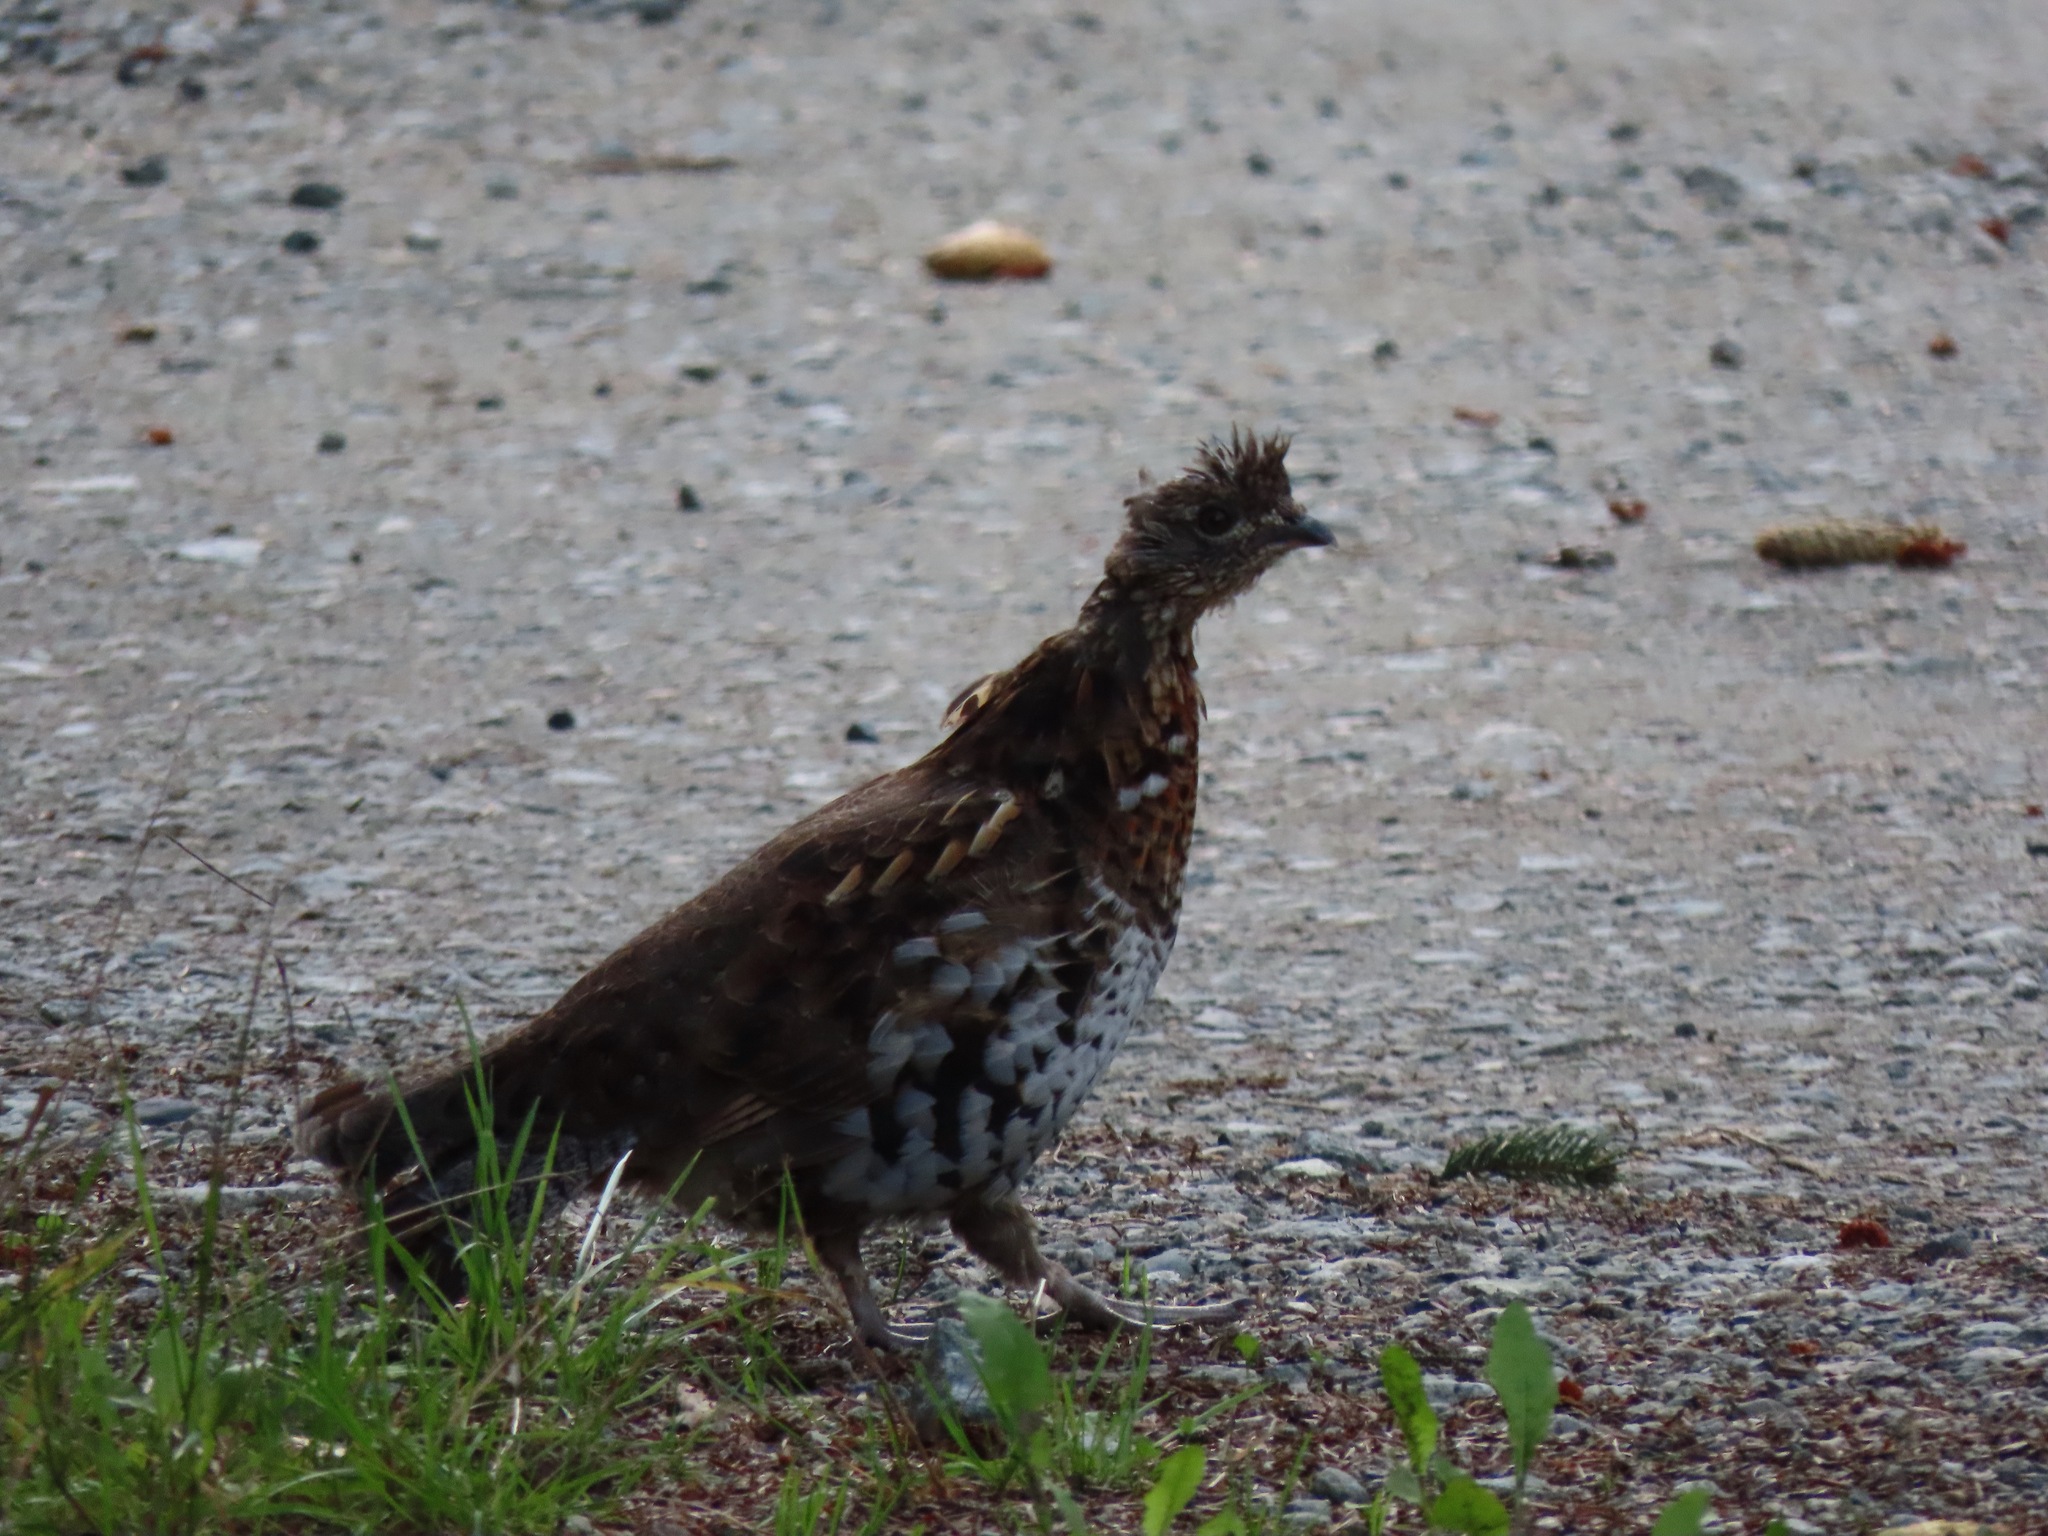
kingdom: Animalia
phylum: Chordata
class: Aves
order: Galliformes
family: Phasianidae
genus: Bonasa
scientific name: Bonasa umbellus
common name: Ruffed grouse
